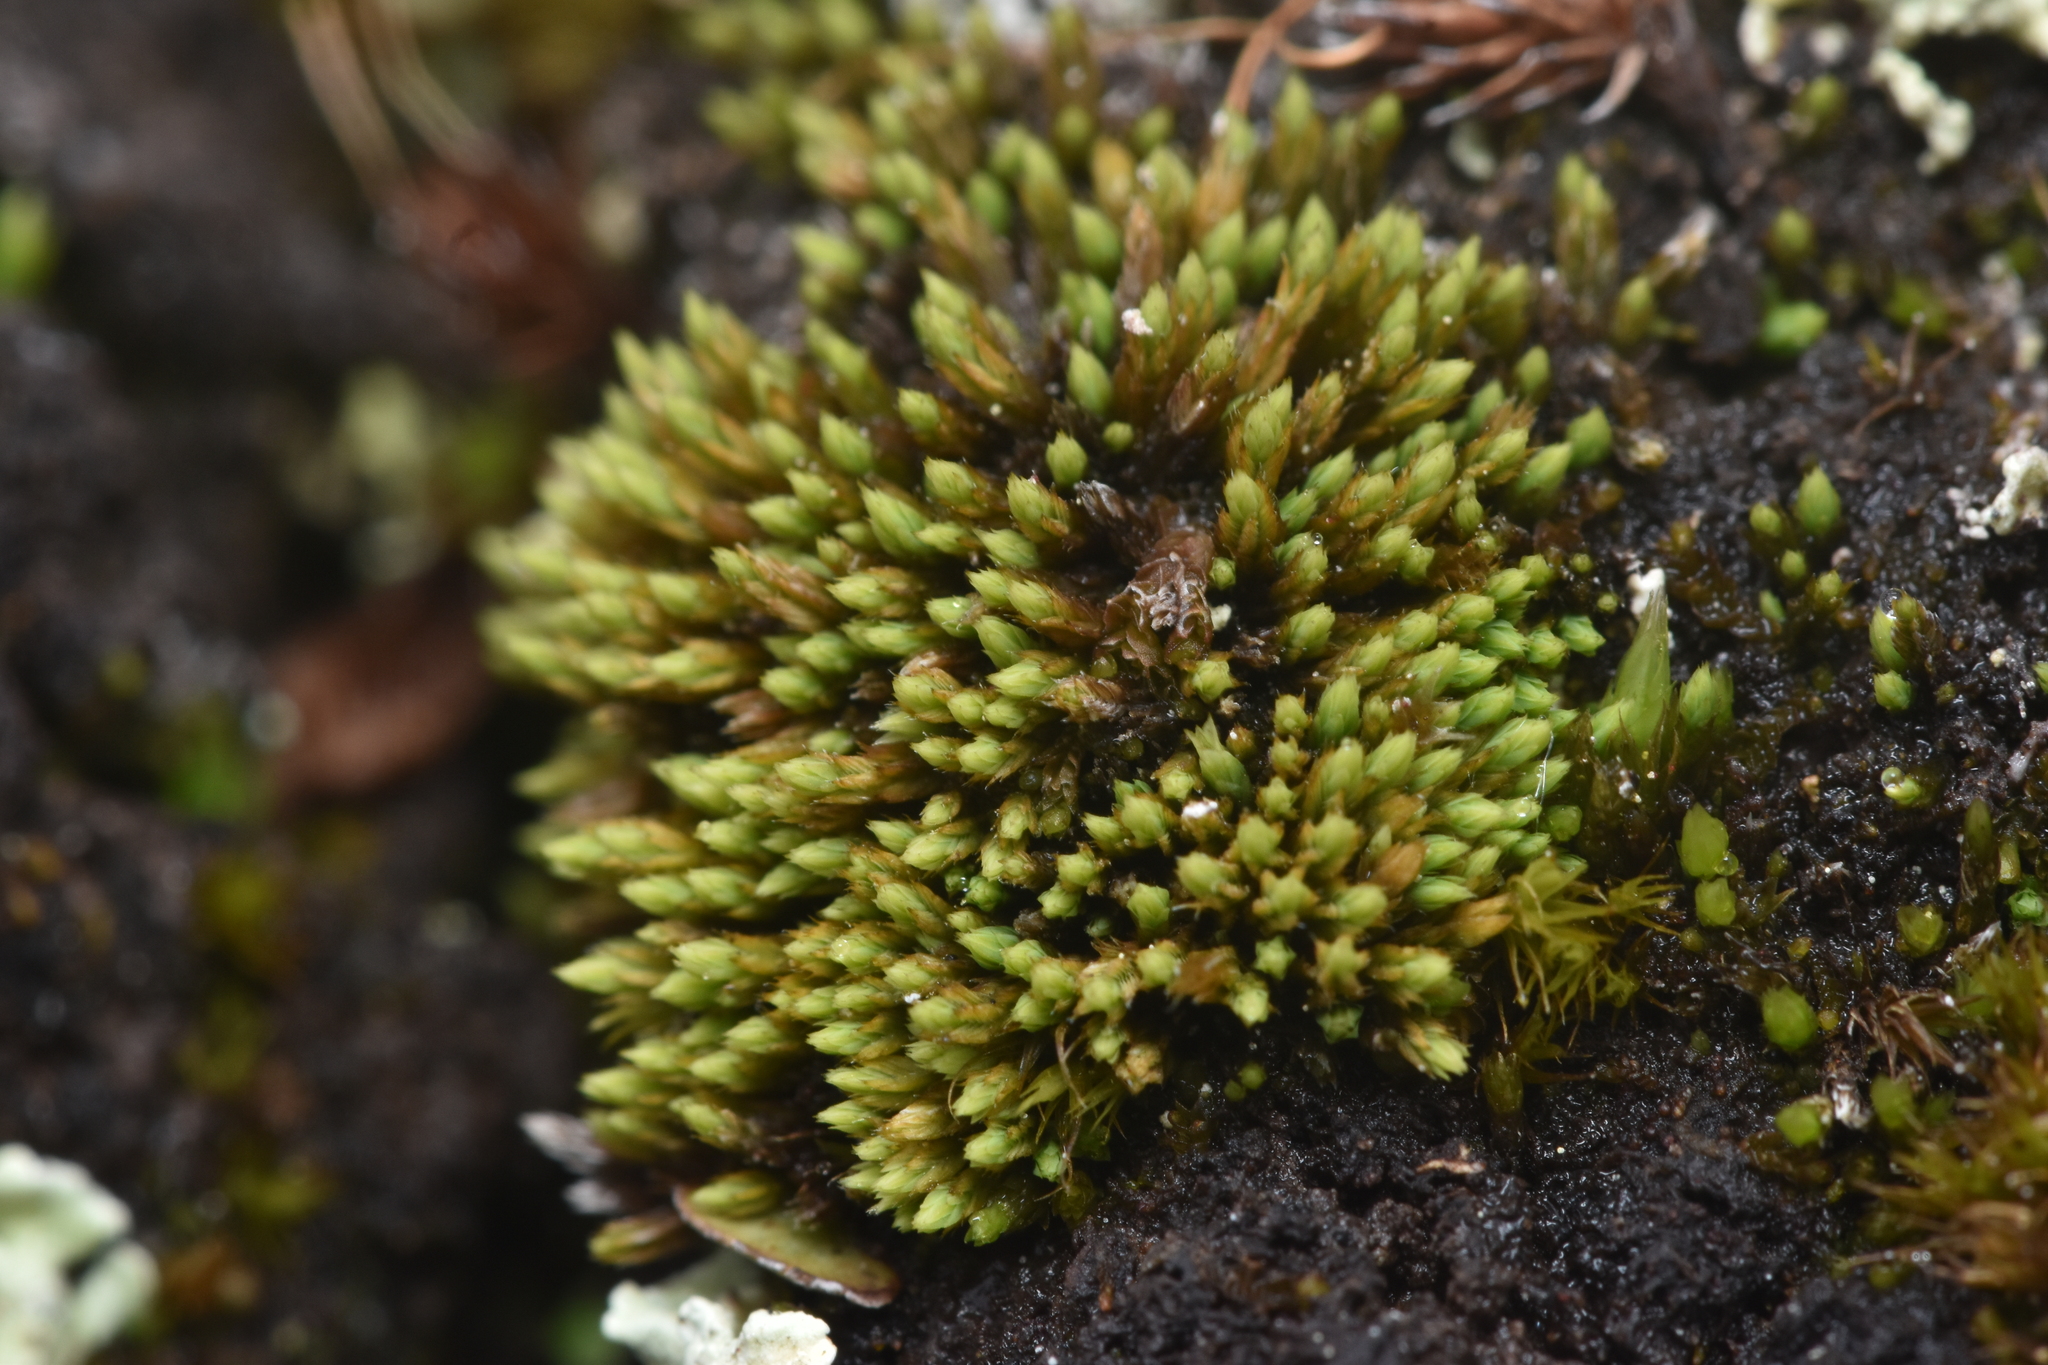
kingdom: Plantae
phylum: Bryophyta
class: Bryopsida
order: Bartramiales
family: Bartramiaceae
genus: Conostomum
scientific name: Conostomum tetragonum
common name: Helmet moss
